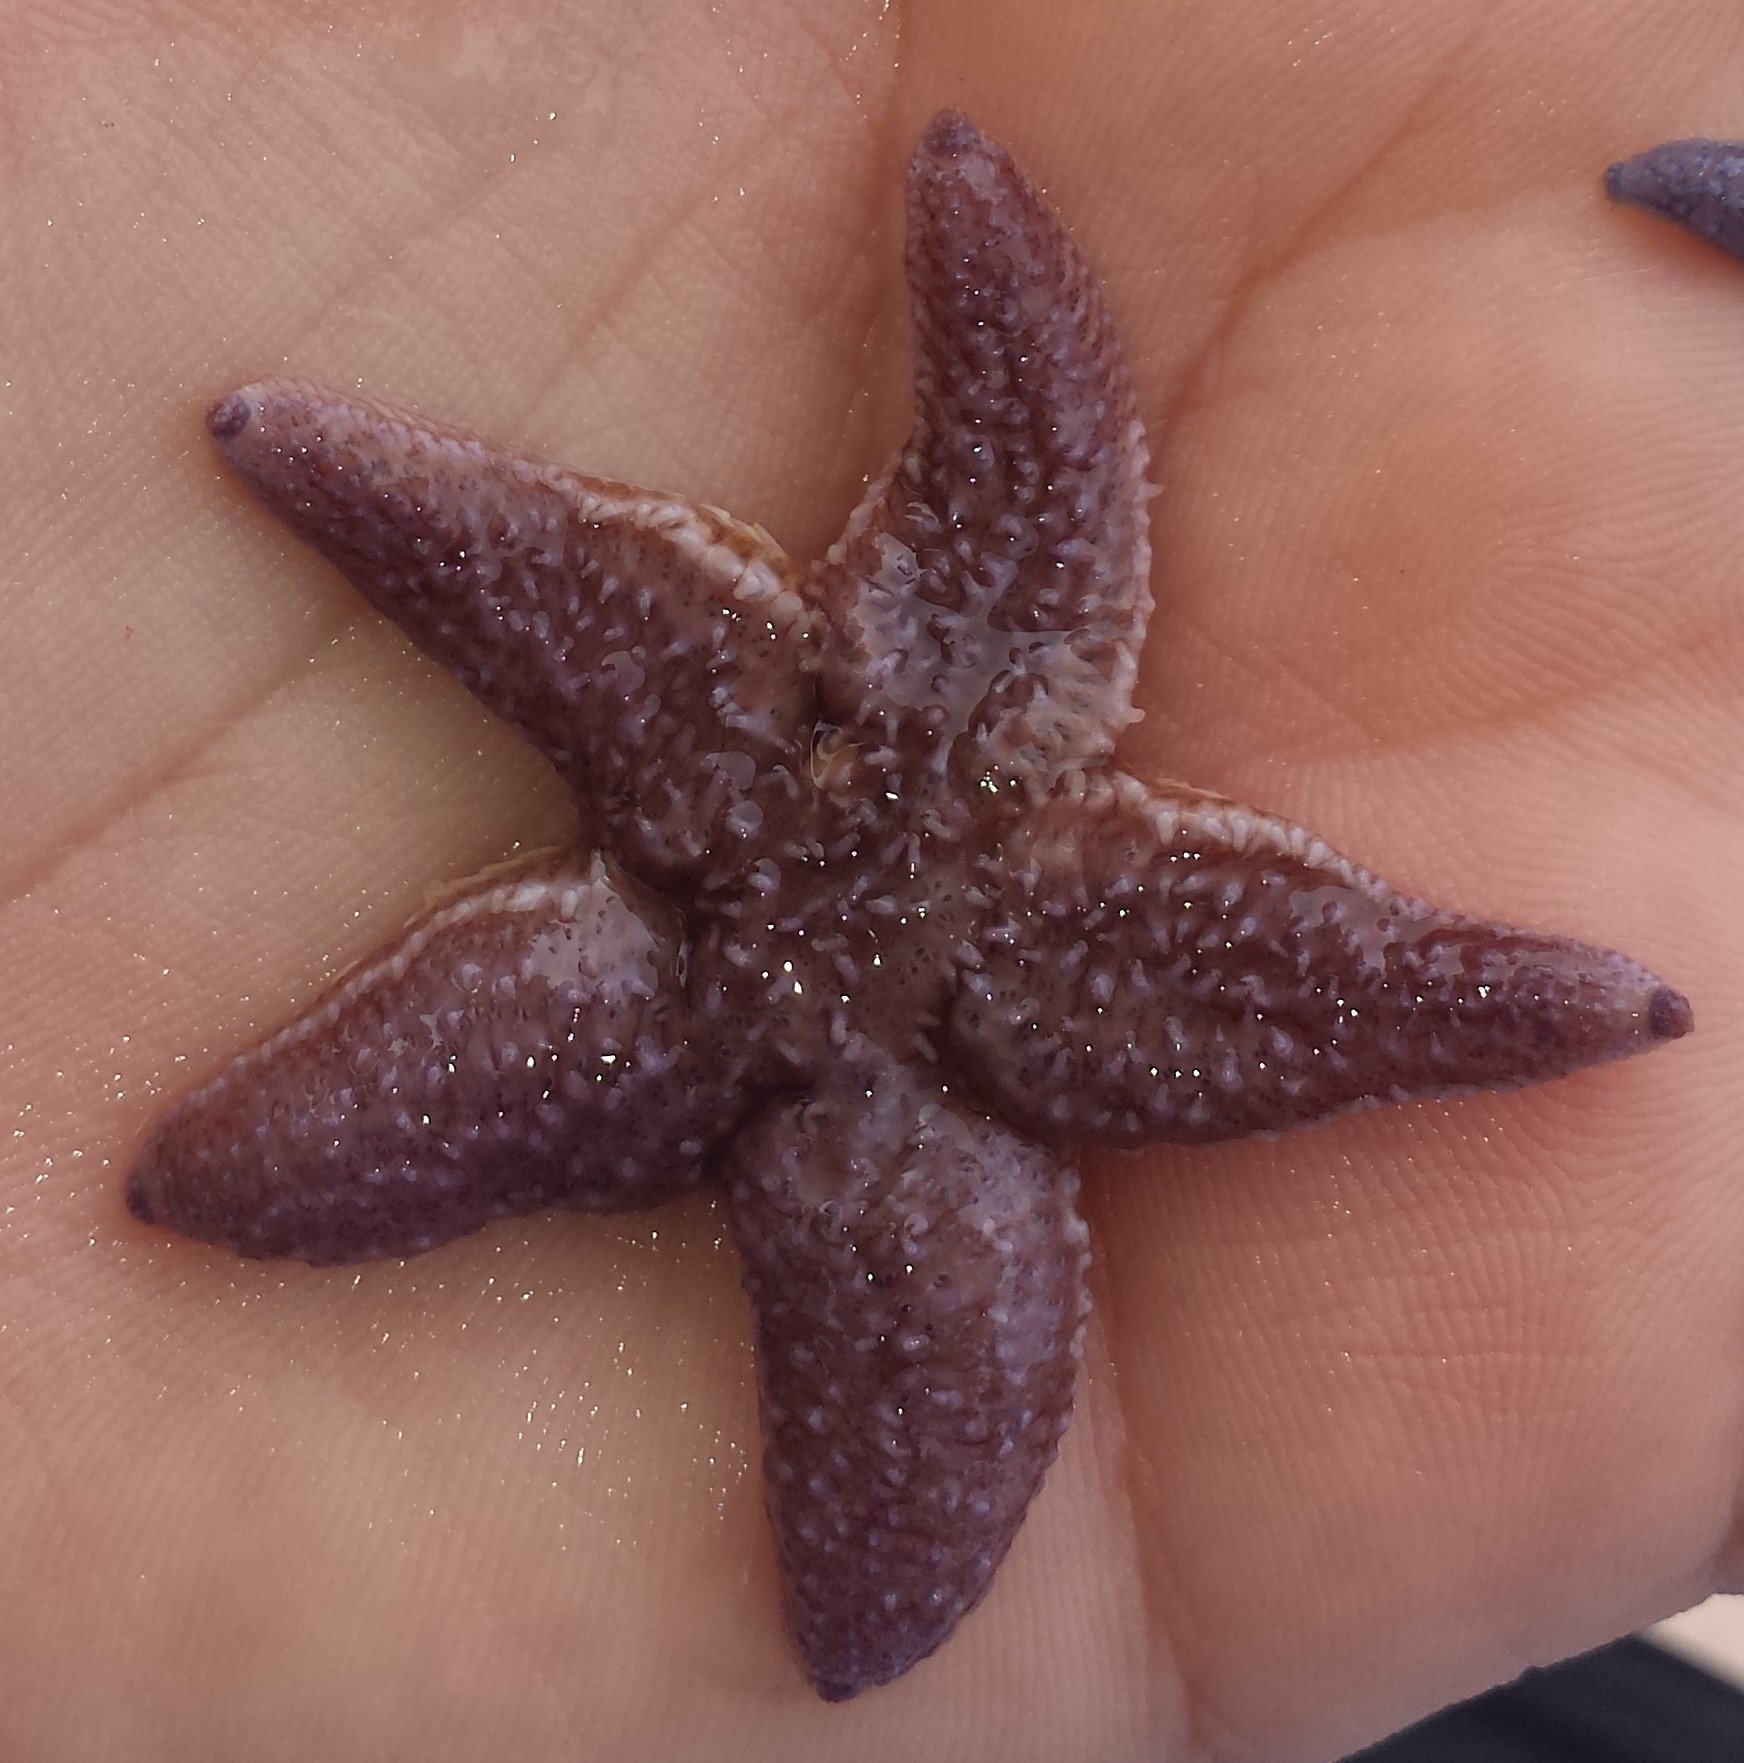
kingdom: Animalia
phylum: Echinodermata
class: Asteroidea
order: Forcipulatida
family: Asteriidae
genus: Asterias
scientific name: Asterias rubens
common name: Common starfish
